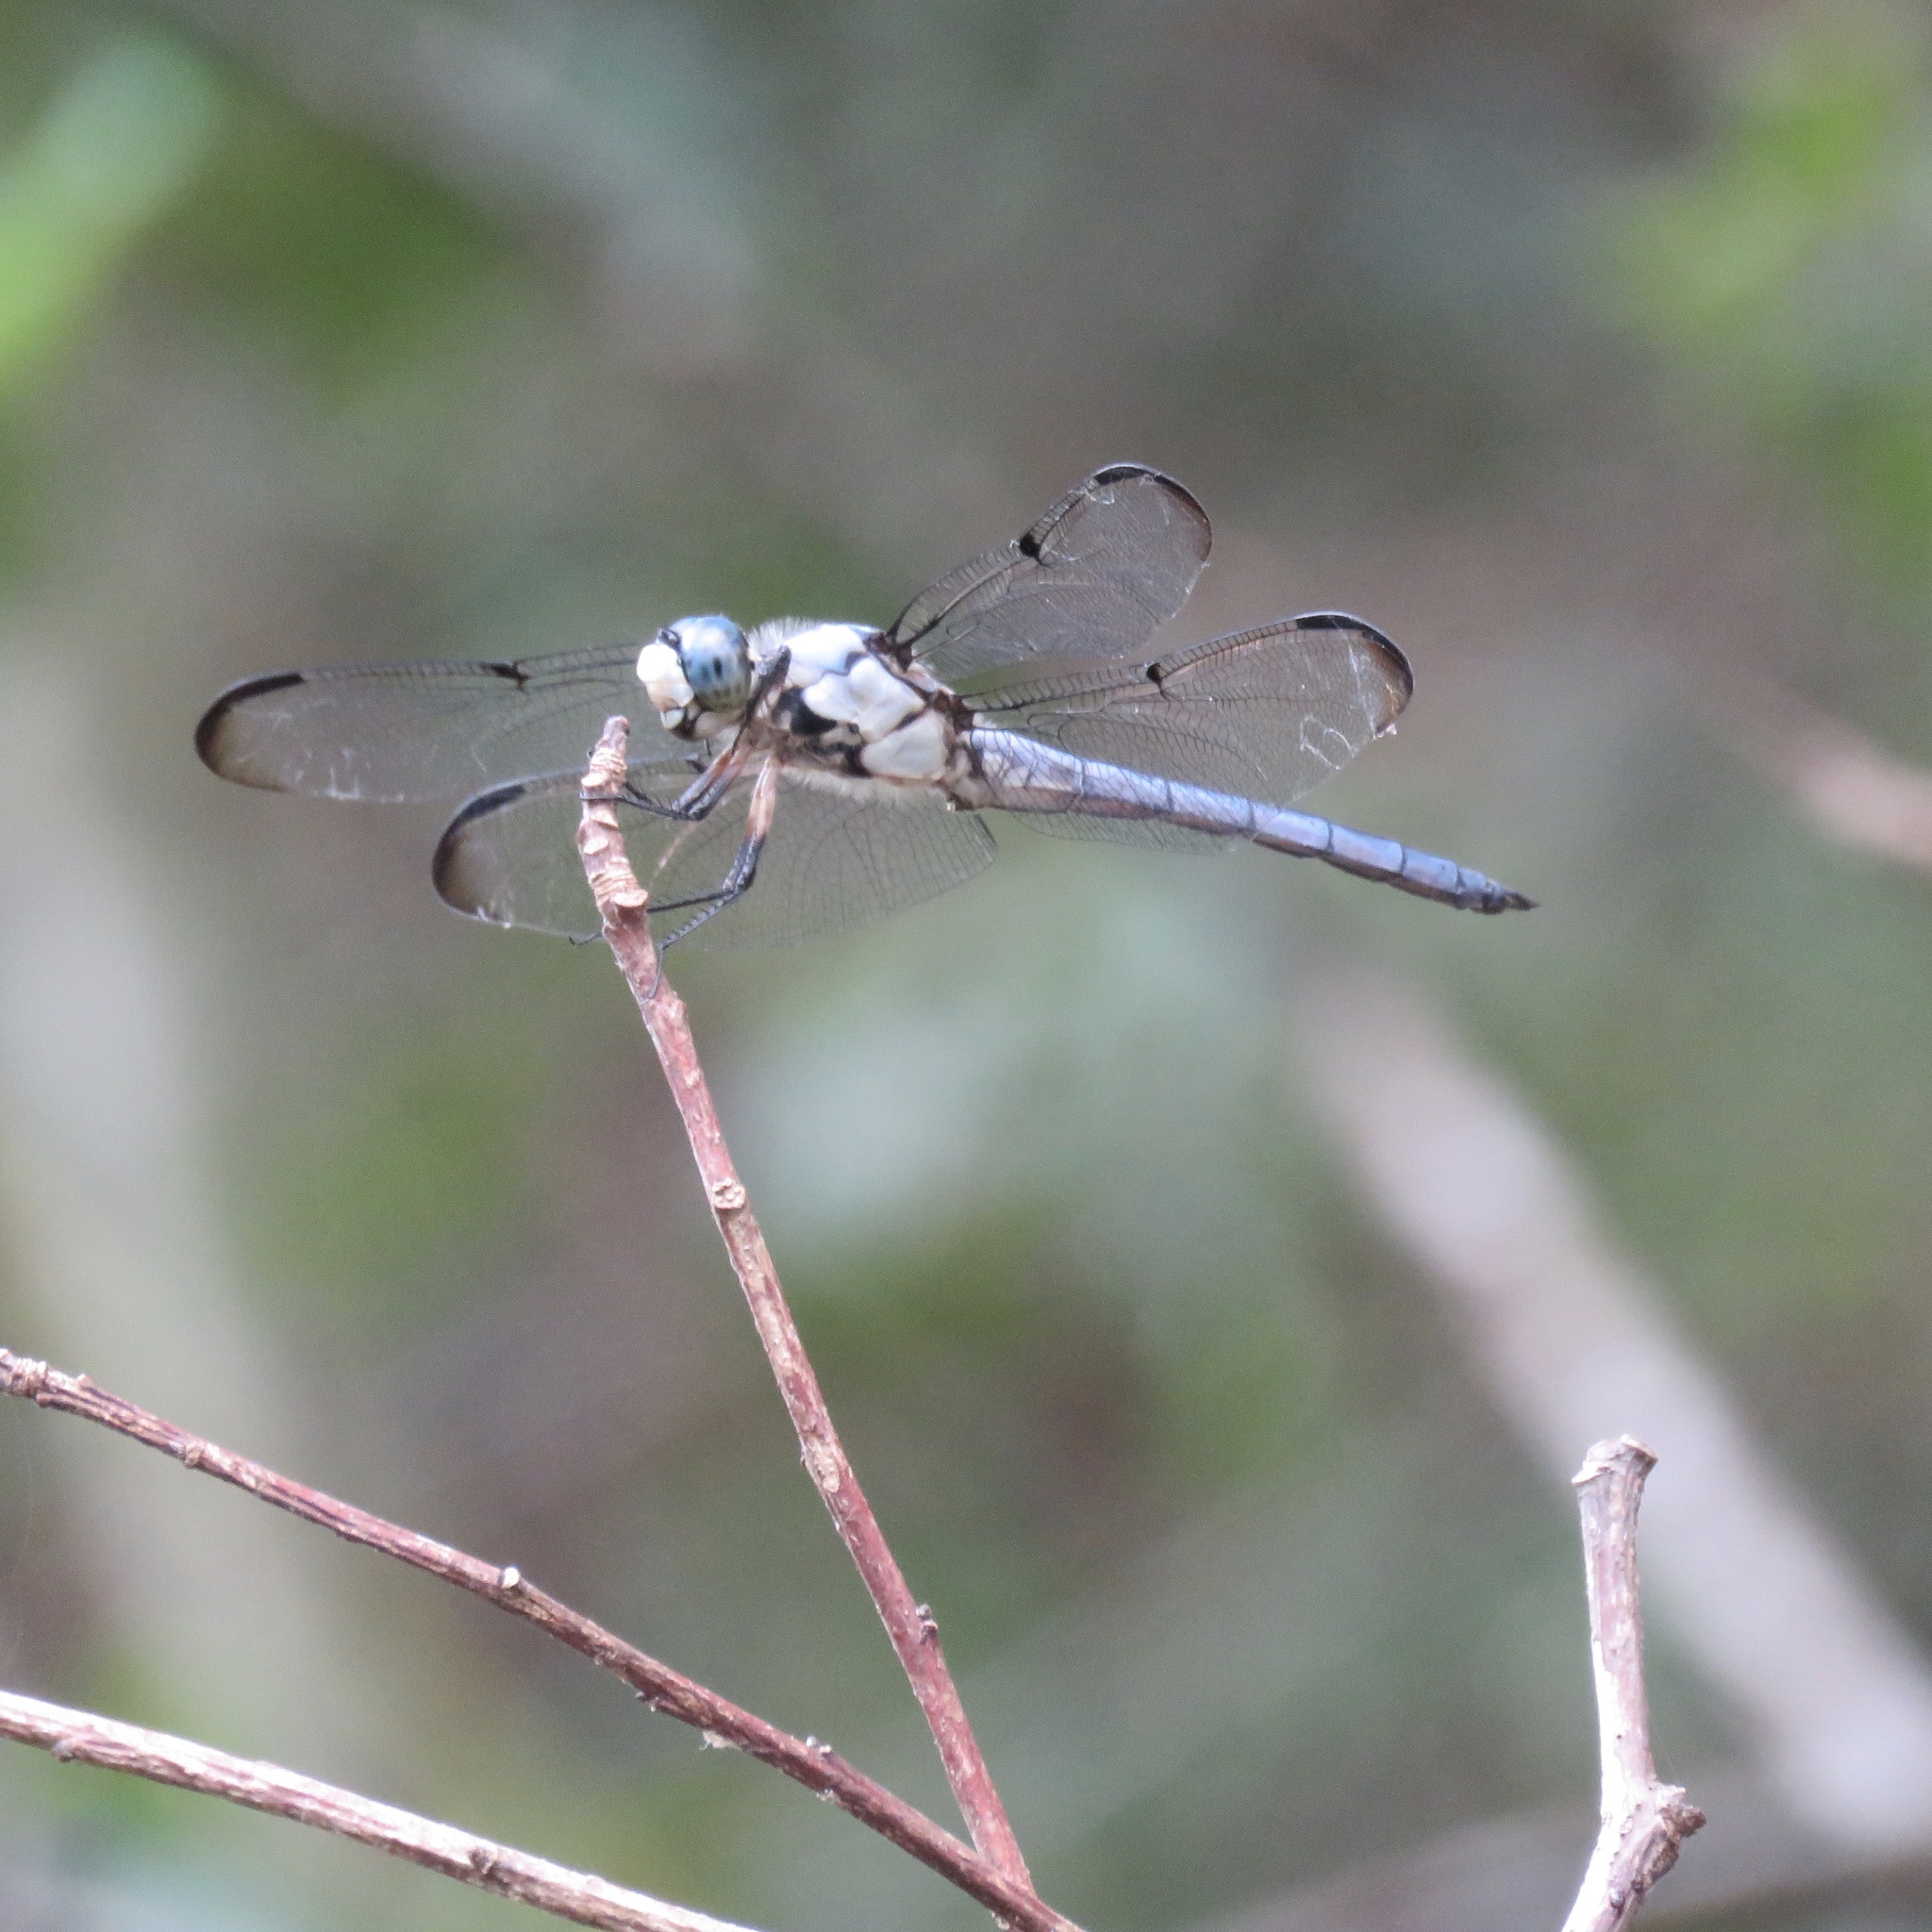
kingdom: Animalia
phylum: Arthropoda
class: Insecta
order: Odonata
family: Libellulidae
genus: Libellula
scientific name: Libellula vibrans
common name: Great blue skimmer
